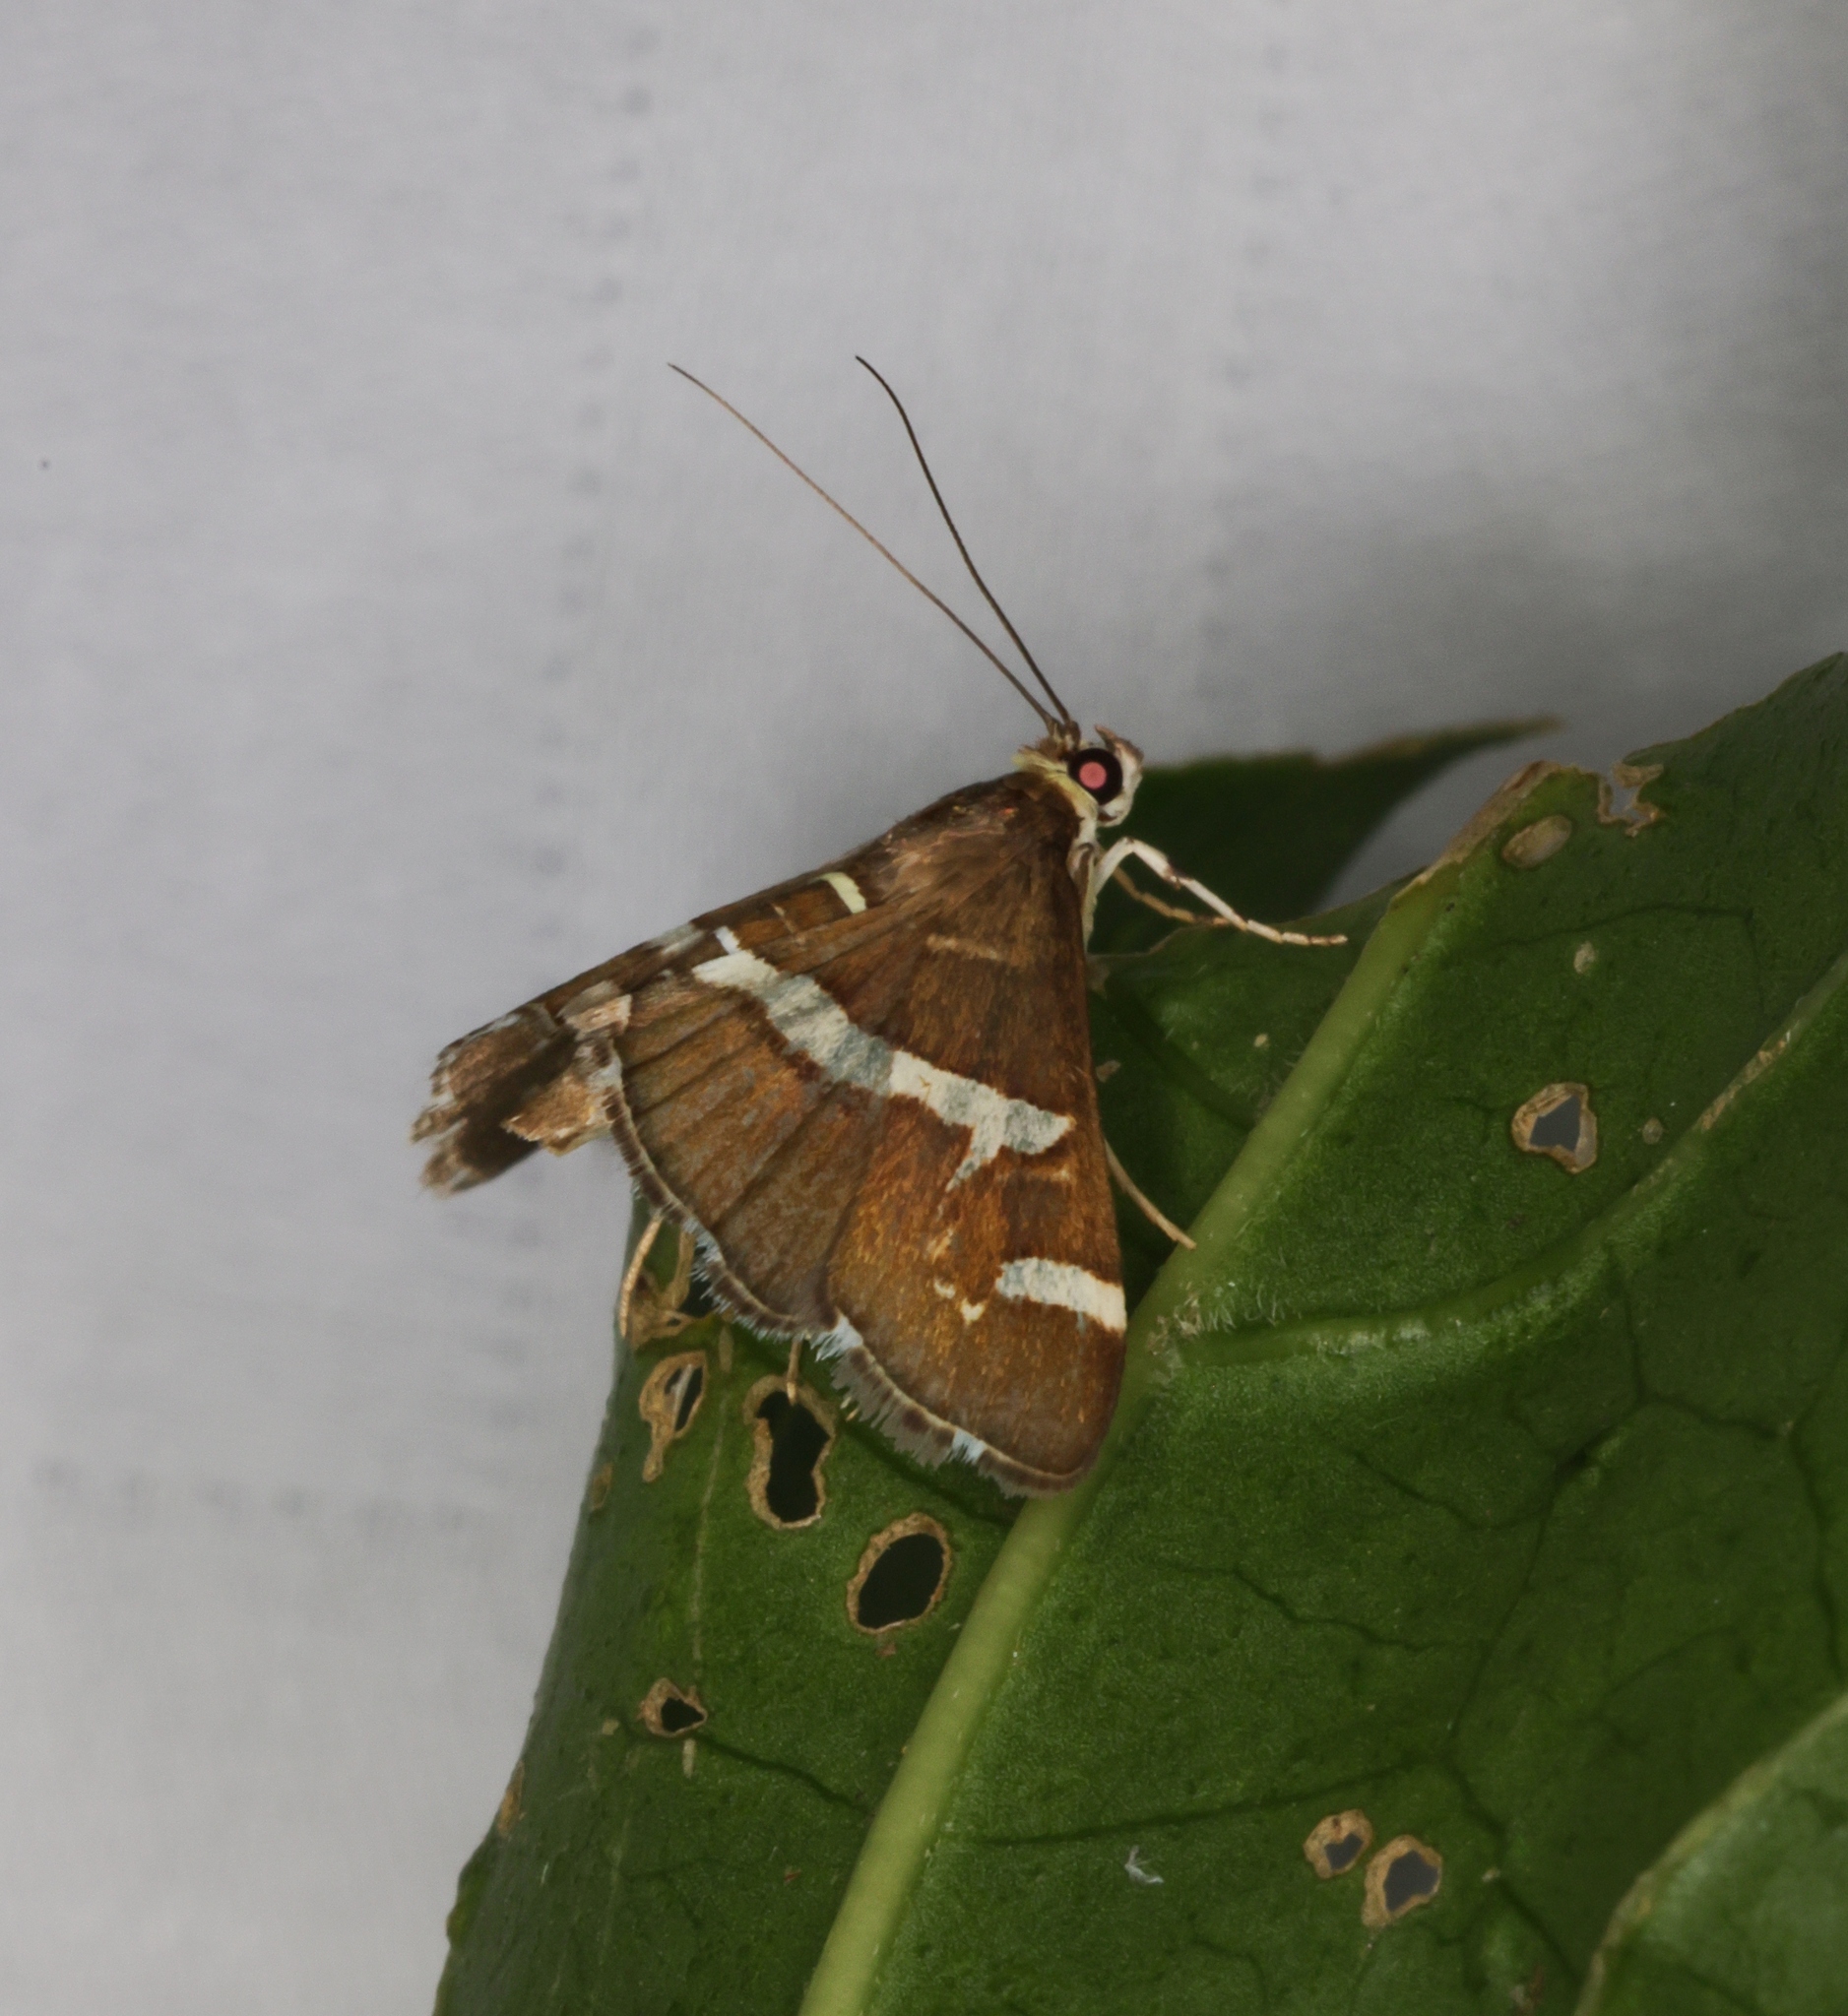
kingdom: Animalia
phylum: Arthropoda
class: Insecta
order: Lepidoptera
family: Crambidae
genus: Spoladea
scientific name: Spoladea recurvalis
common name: Beet webworm moth
